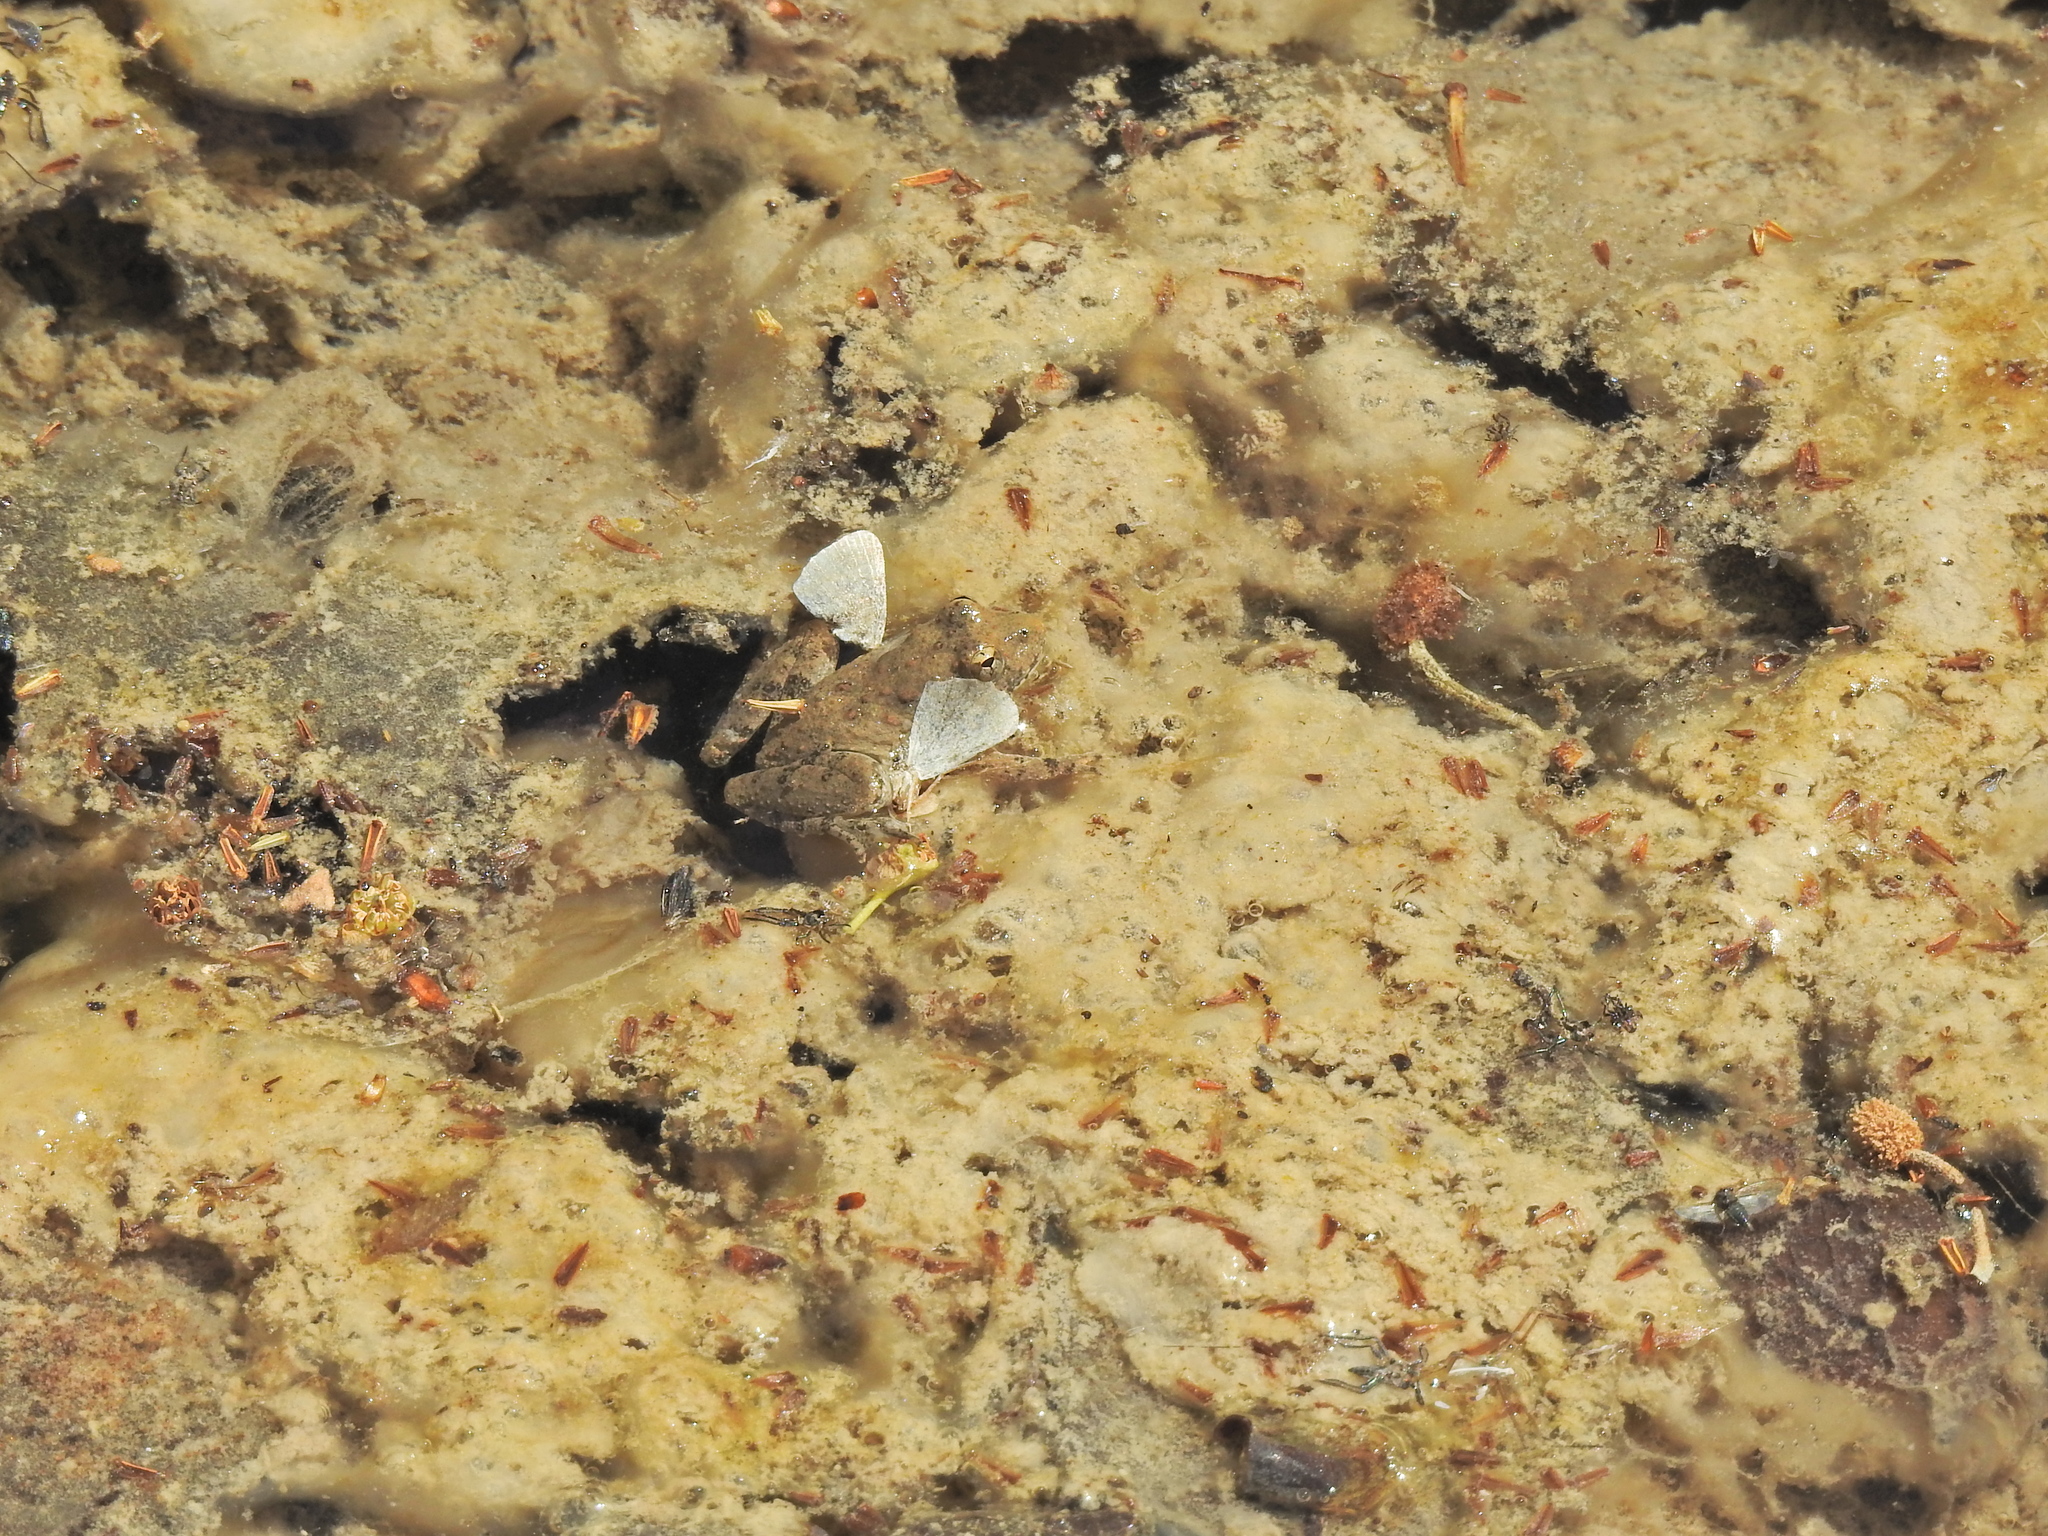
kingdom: Animalia
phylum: Chordata
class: Amphibia
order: Anura
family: Hylidae
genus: Acris
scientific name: Acris blanchardi
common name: Blanchard's cricket frog
